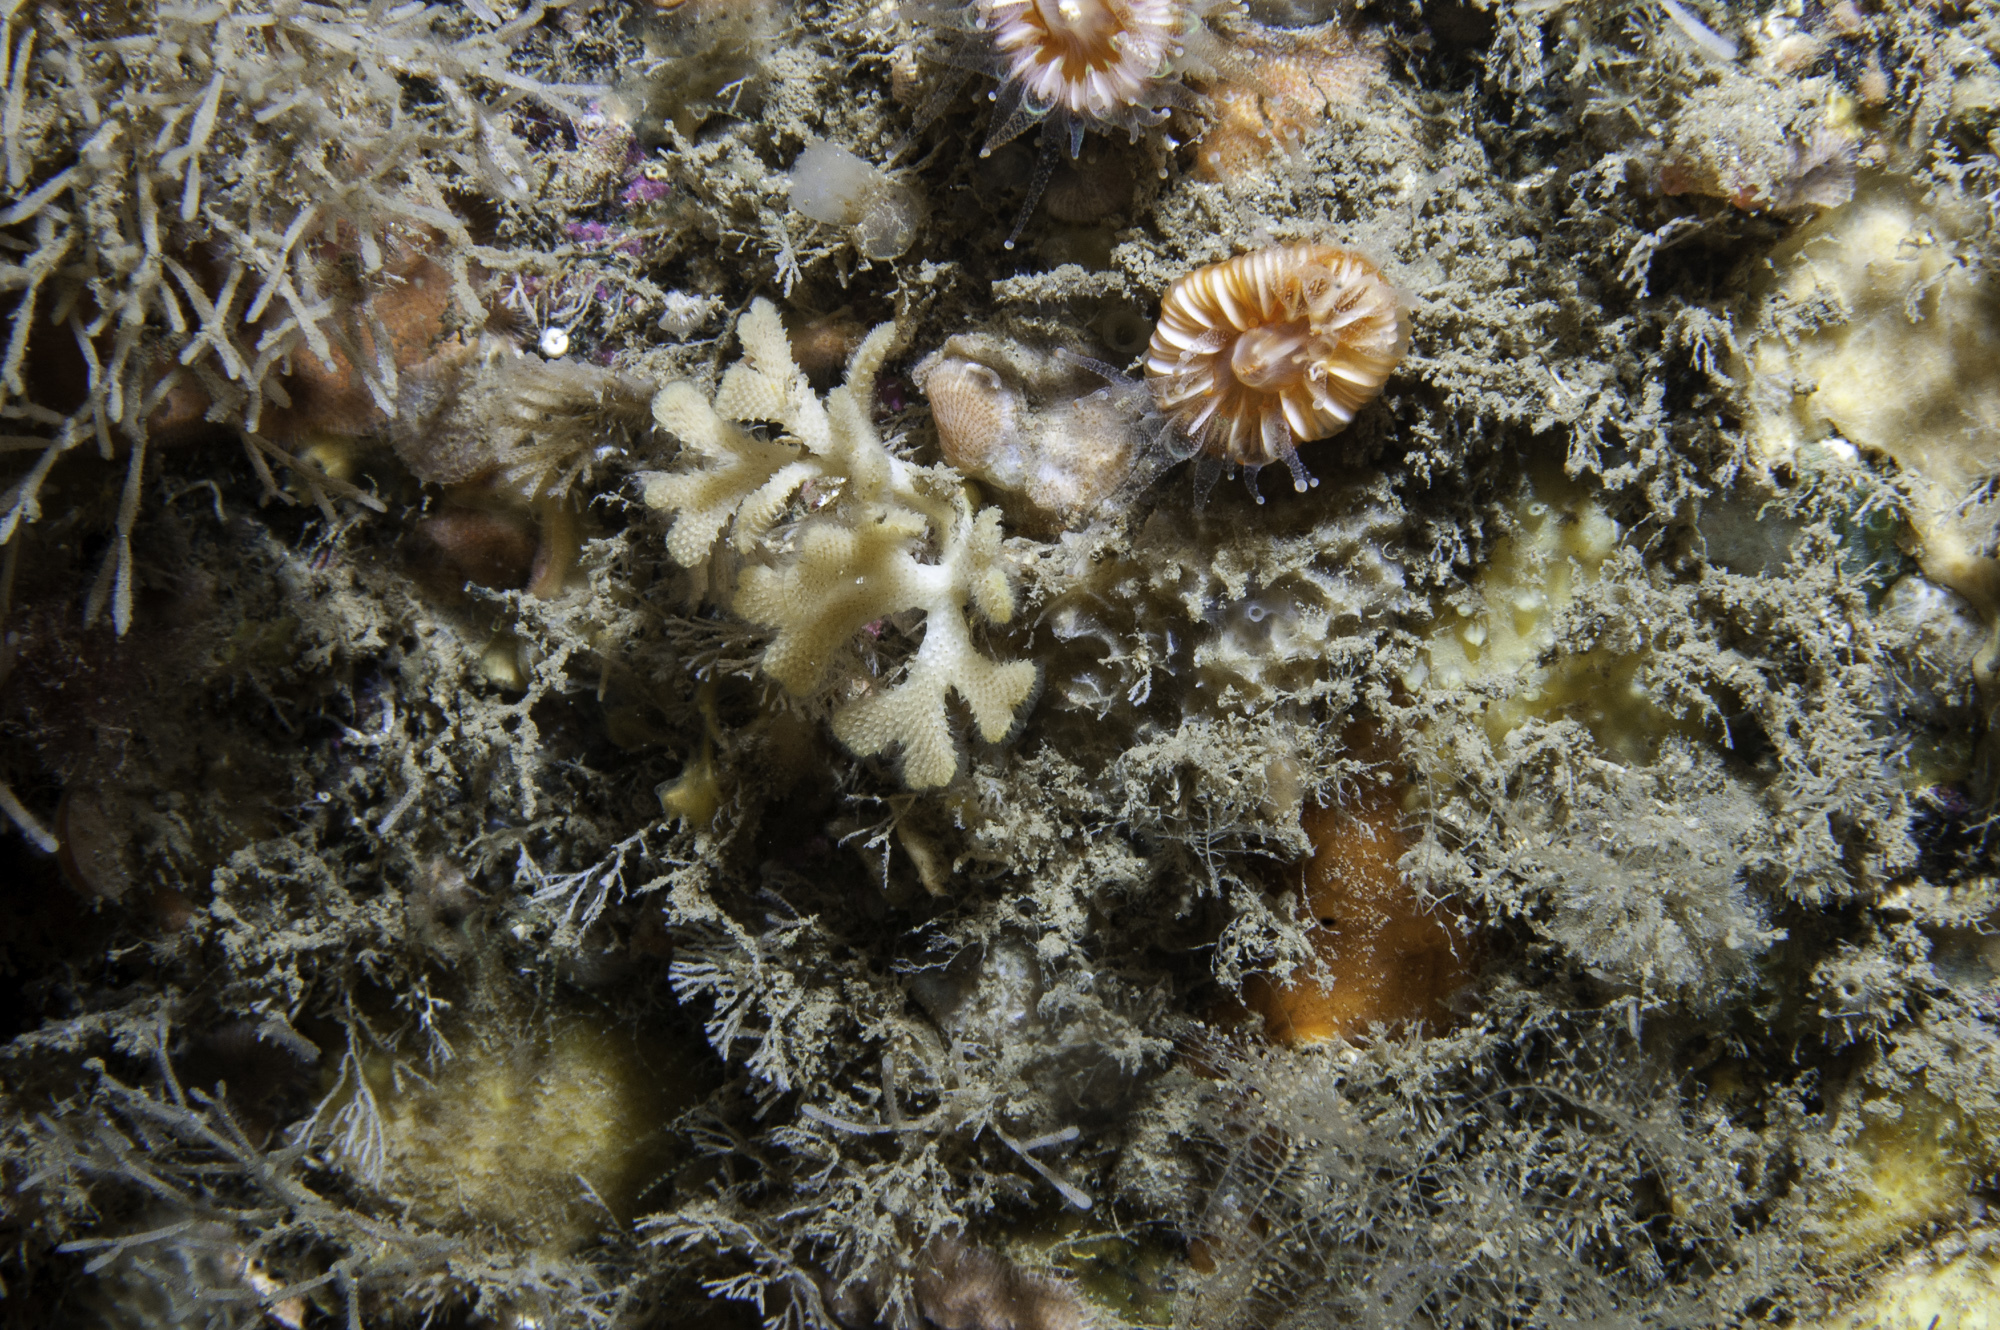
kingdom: Animalia
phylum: Bryozoa
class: Gymnolaemata
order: Cheilostomatida
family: Bryocryptellidae
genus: Palmiskenea
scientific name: Palmiskenea skenei
